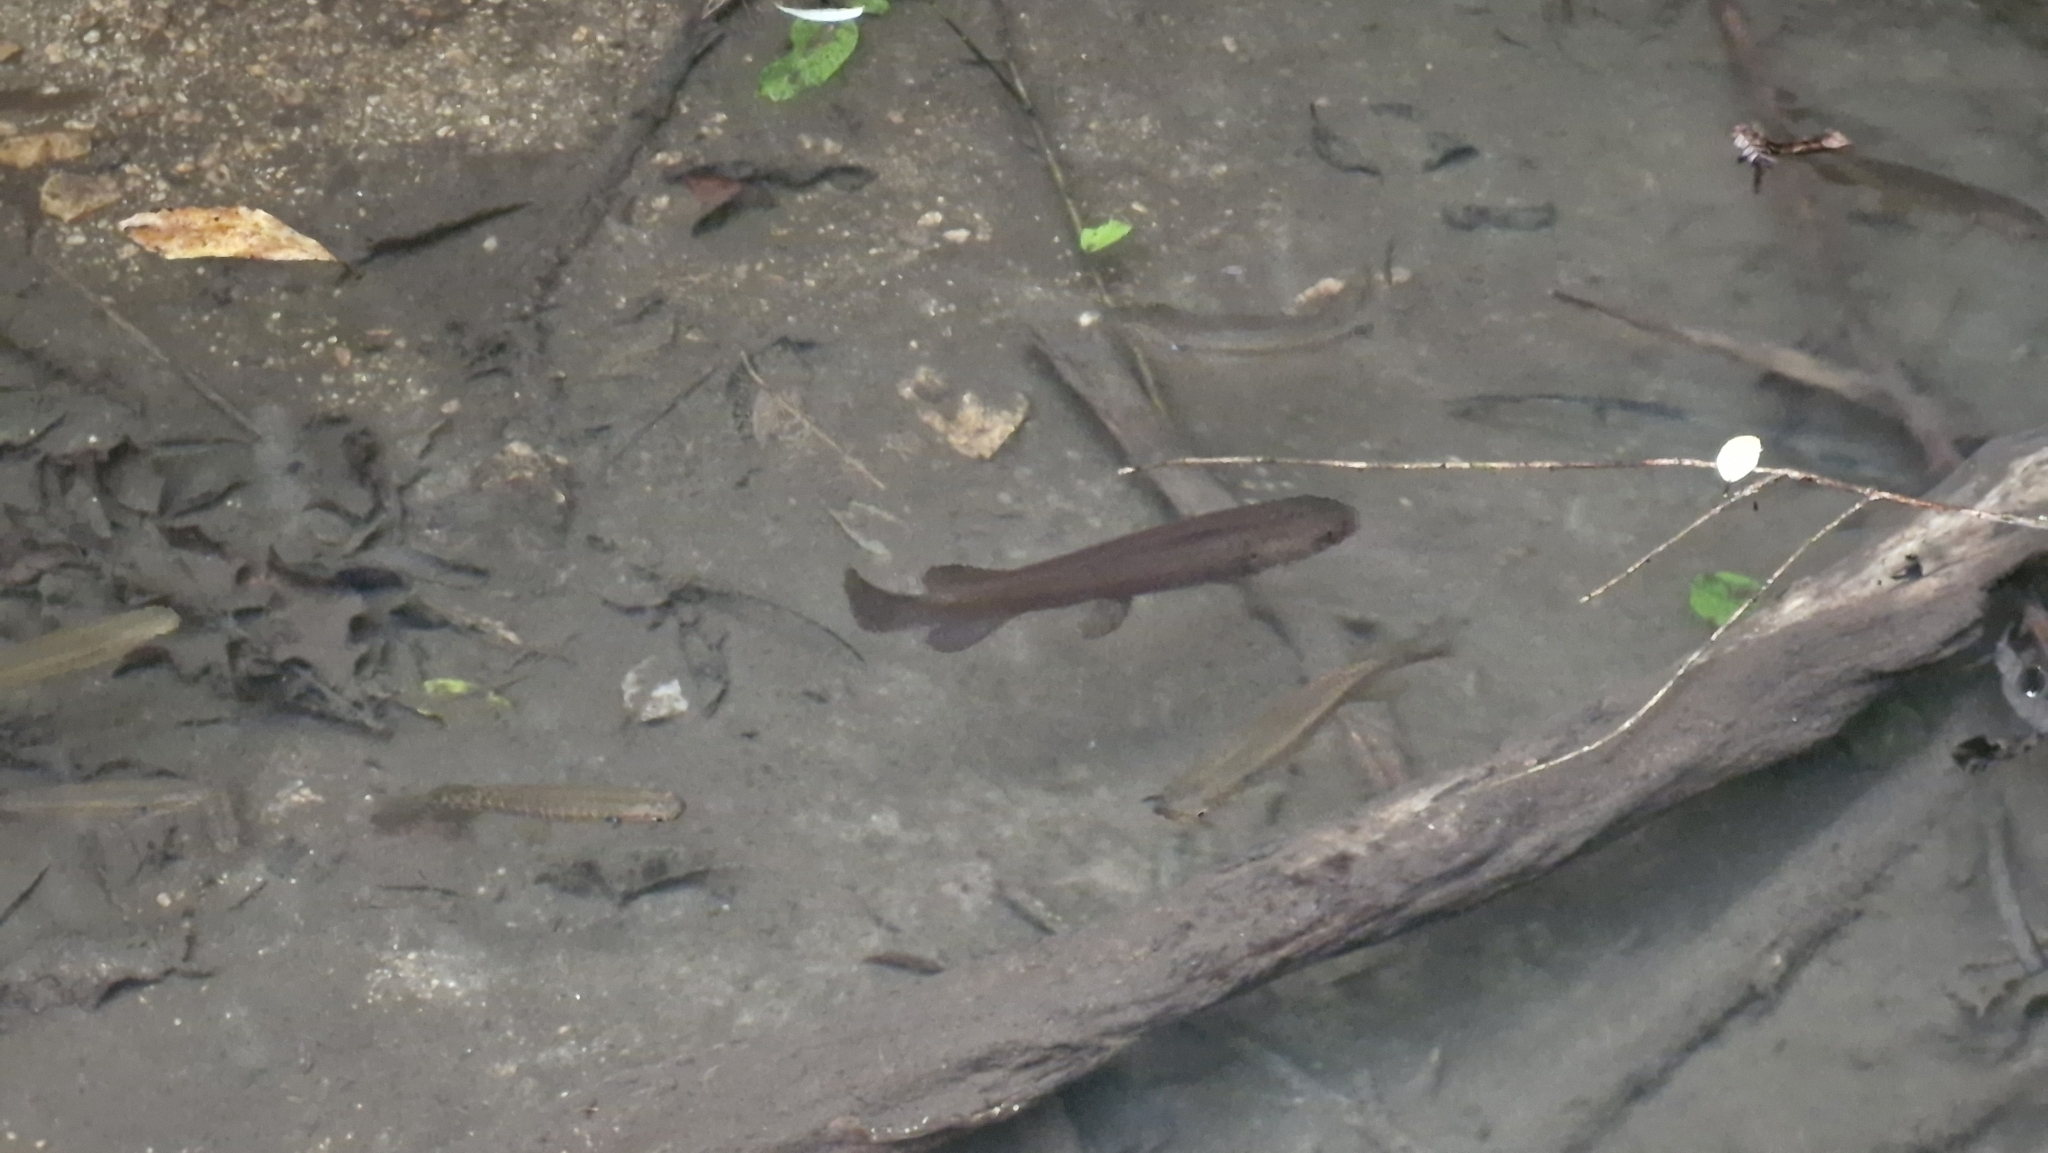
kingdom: Animalia
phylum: Chordata
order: Osmeriformes
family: Galaxiidae
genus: Galaxias
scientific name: Galaxias fasciatus
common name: Banded kokopu
